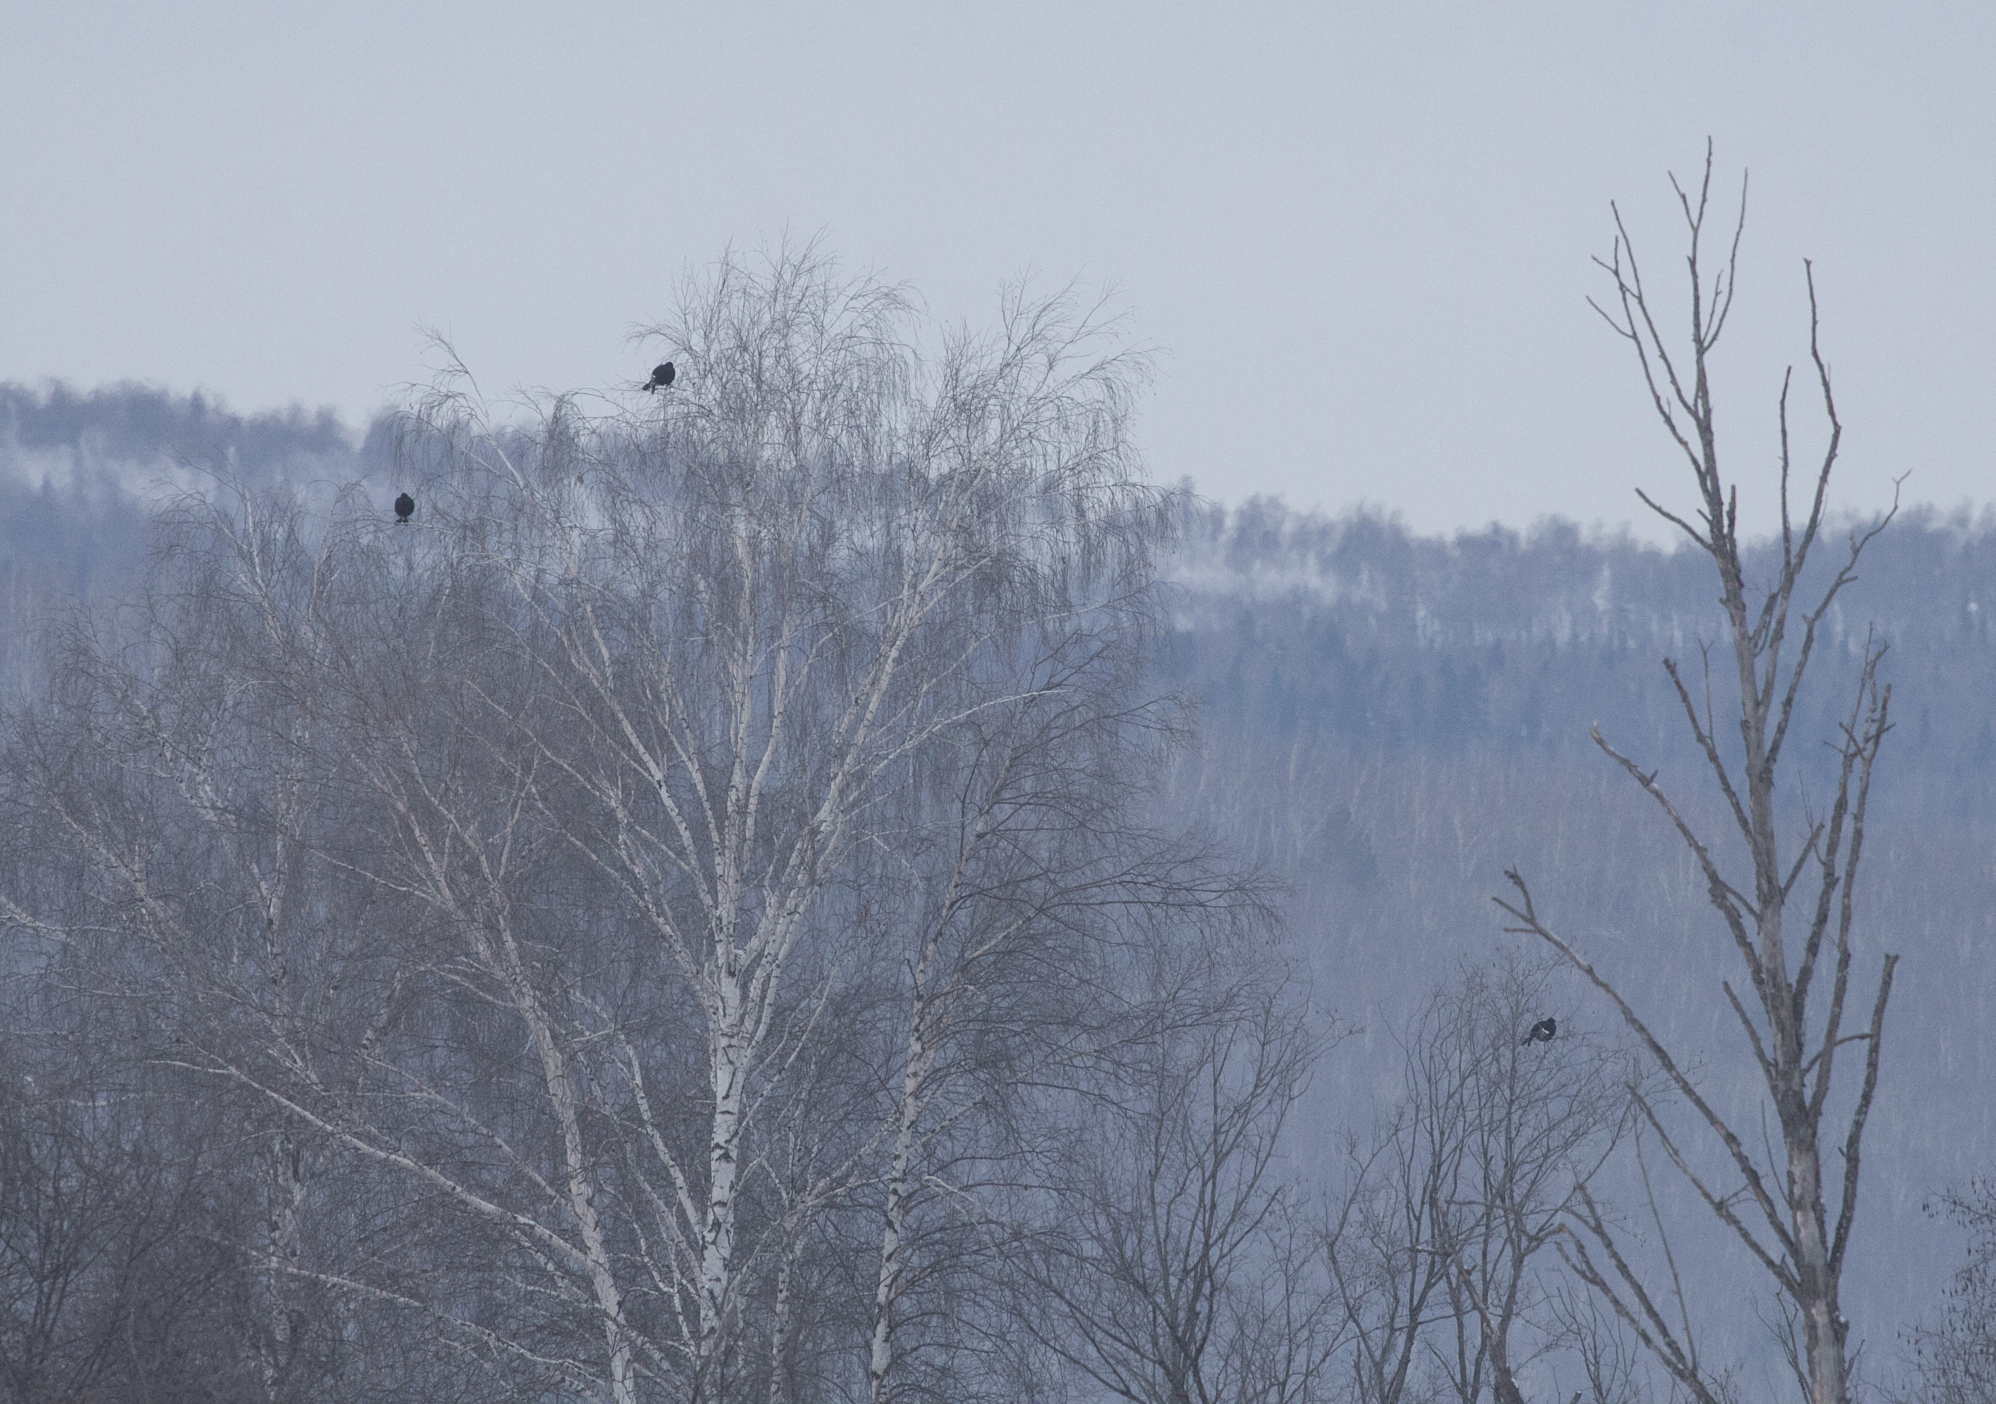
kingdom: Animalia
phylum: Chordata
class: Aves
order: Galliformes
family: Phasianidae
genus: Lyrurus
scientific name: Lyrurus tetrix
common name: Black grouse
